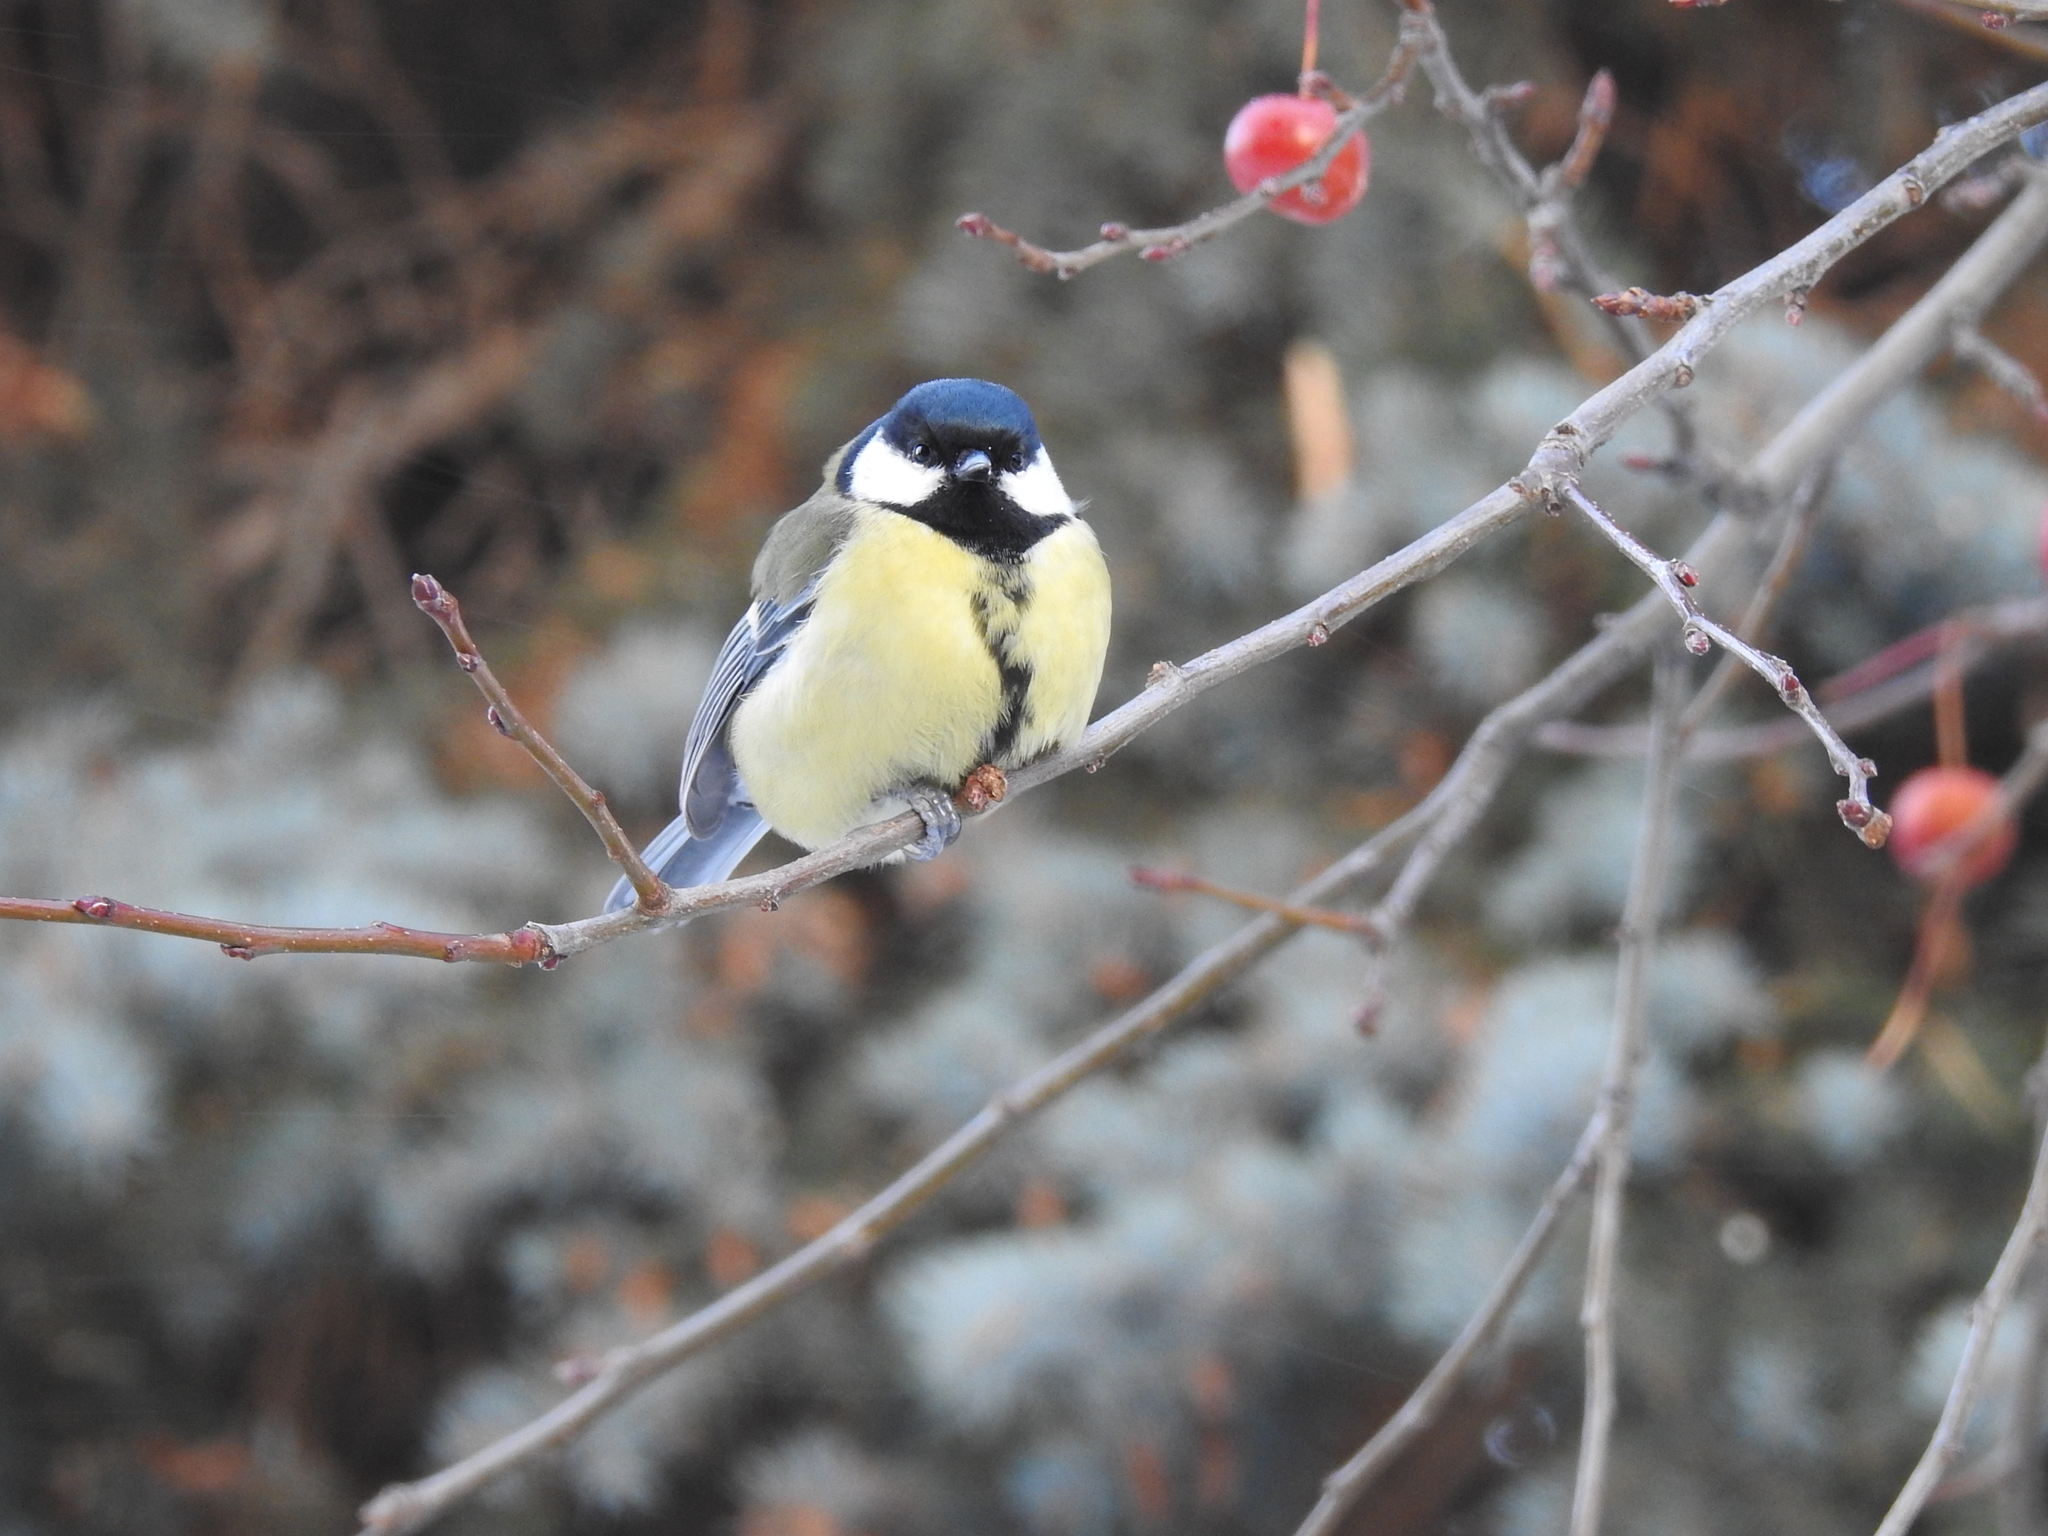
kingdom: Animalia
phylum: Chordata
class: Aves
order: Passeriformes
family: Paridae
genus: Parus
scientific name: Parus major
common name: Great tit
